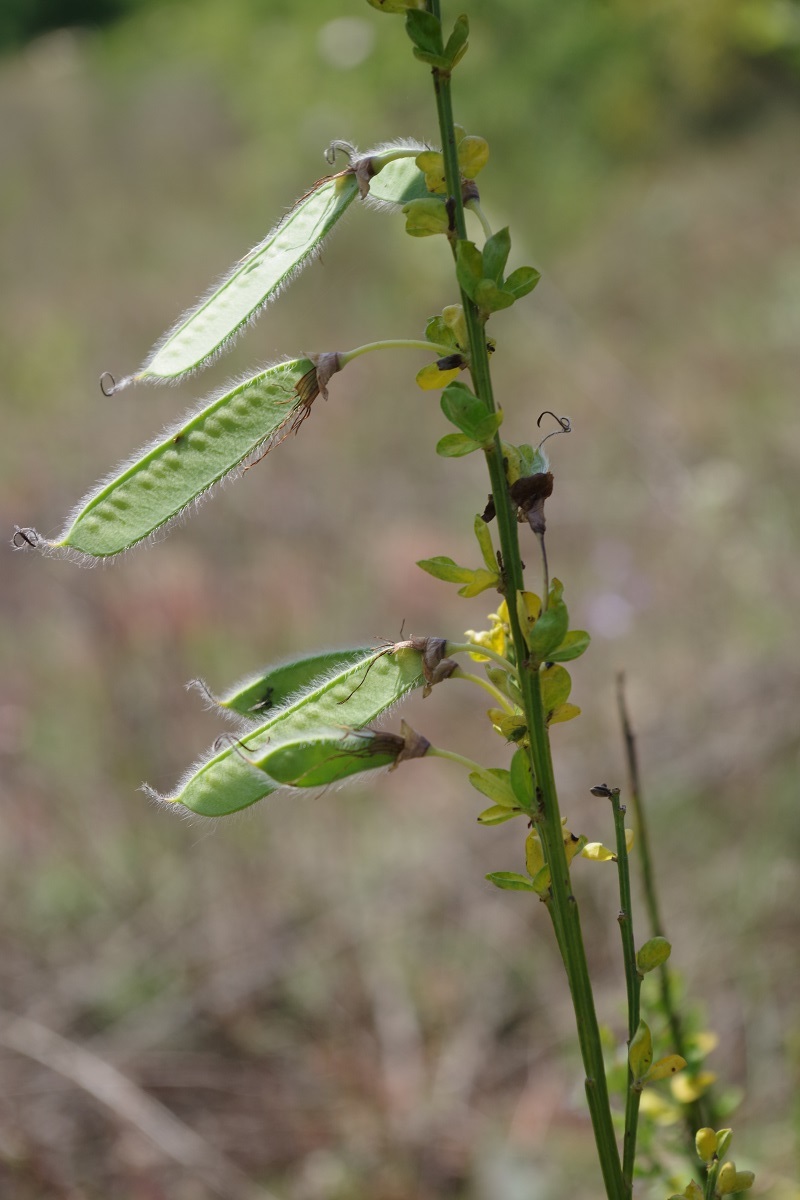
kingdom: Plantae
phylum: Tracheophyta
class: Magnoliopsida
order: Fabales
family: Fabaceae
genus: Cytisus
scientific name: Cytisus scoparius
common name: Scotch broom
